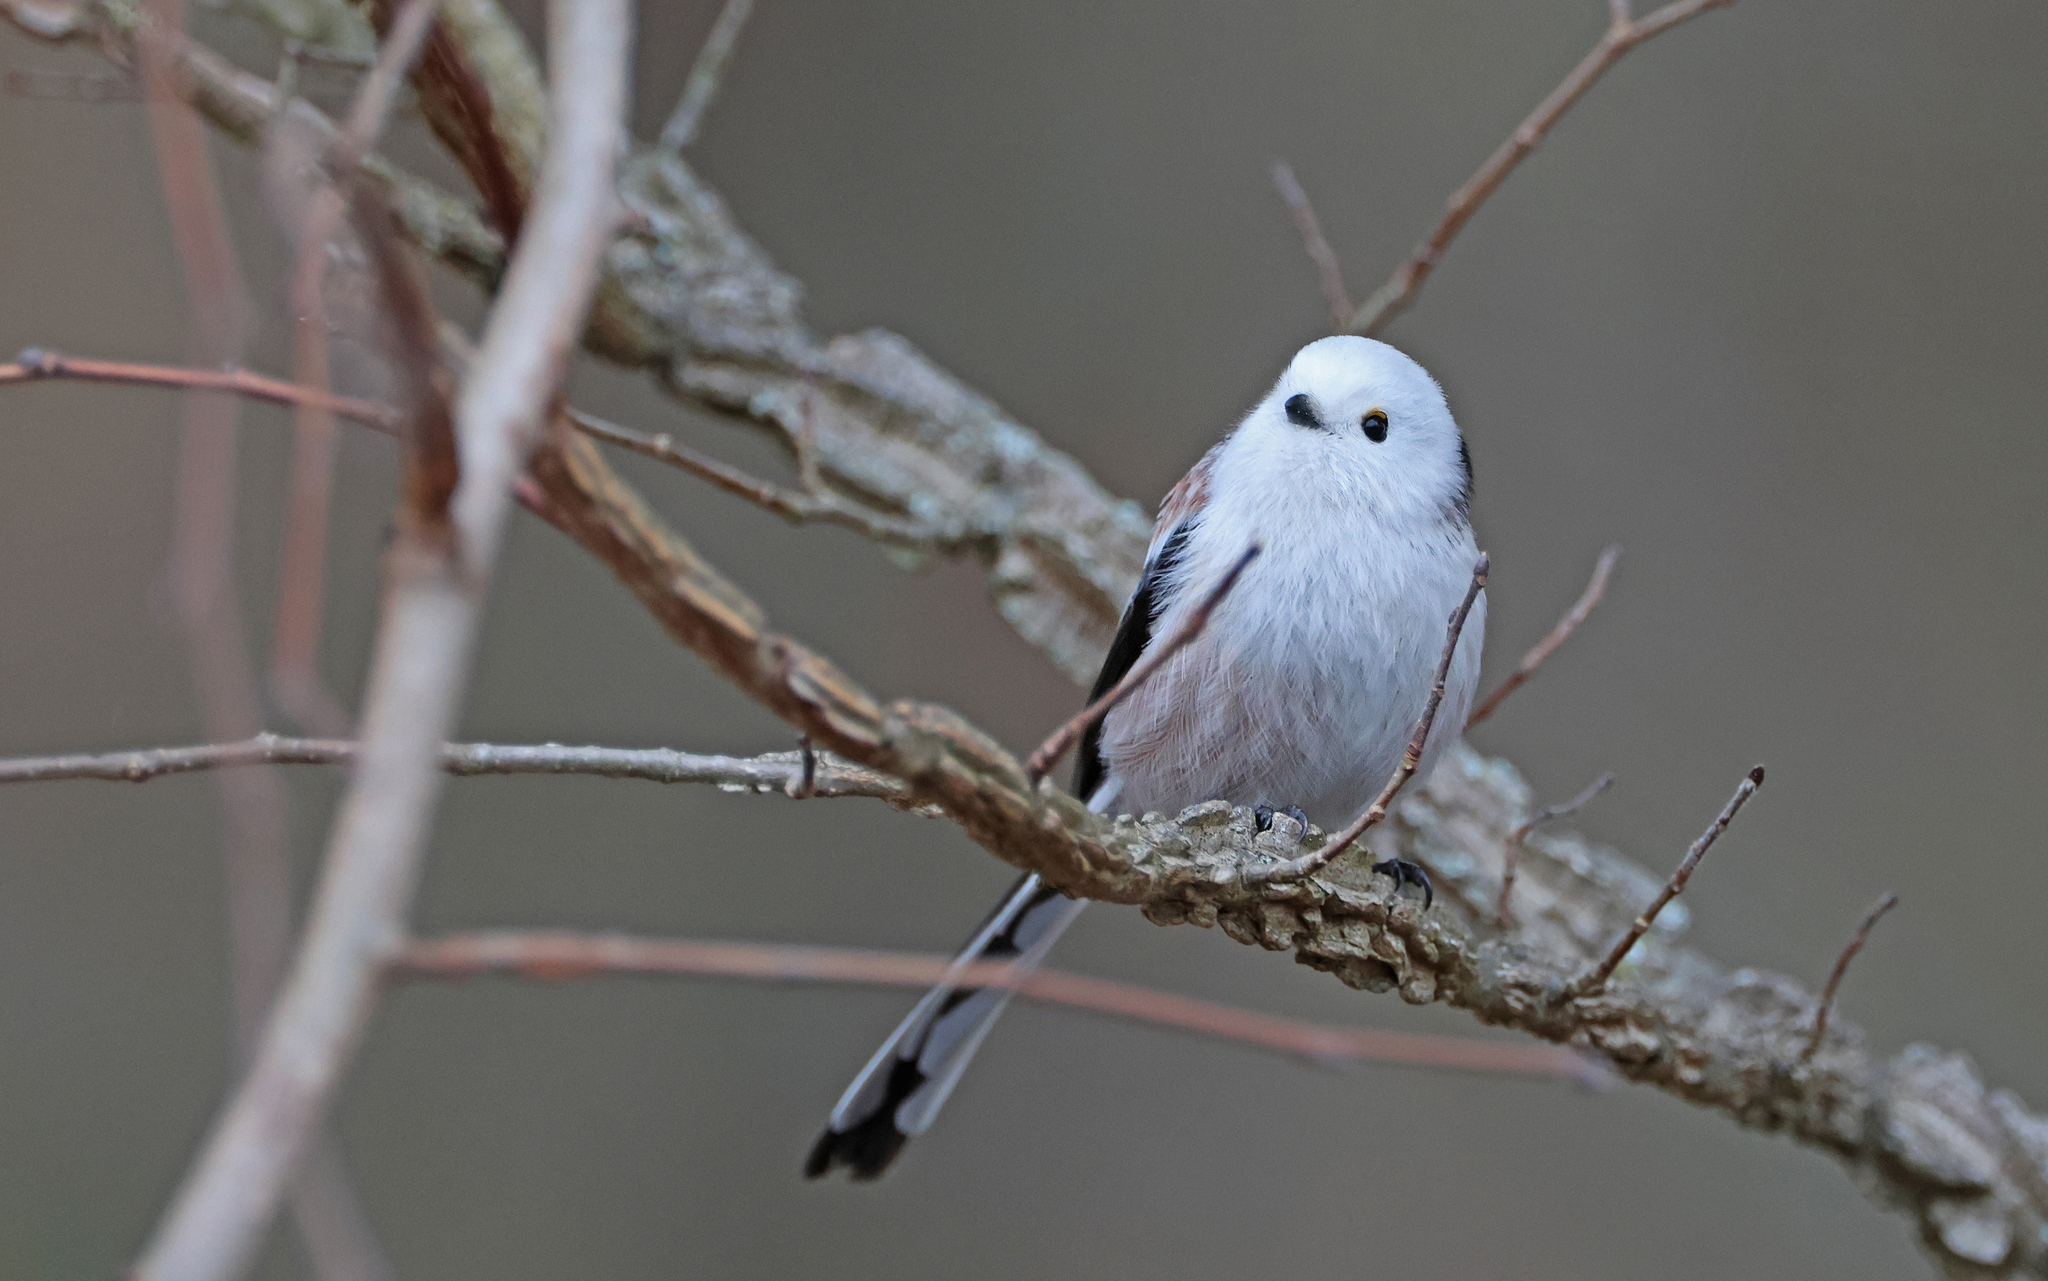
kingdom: Animalia
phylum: Chordata
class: Aves
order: Passeriformes
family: Aegithalidae
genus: Aegithalos
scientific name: Aegithalos caudatus
